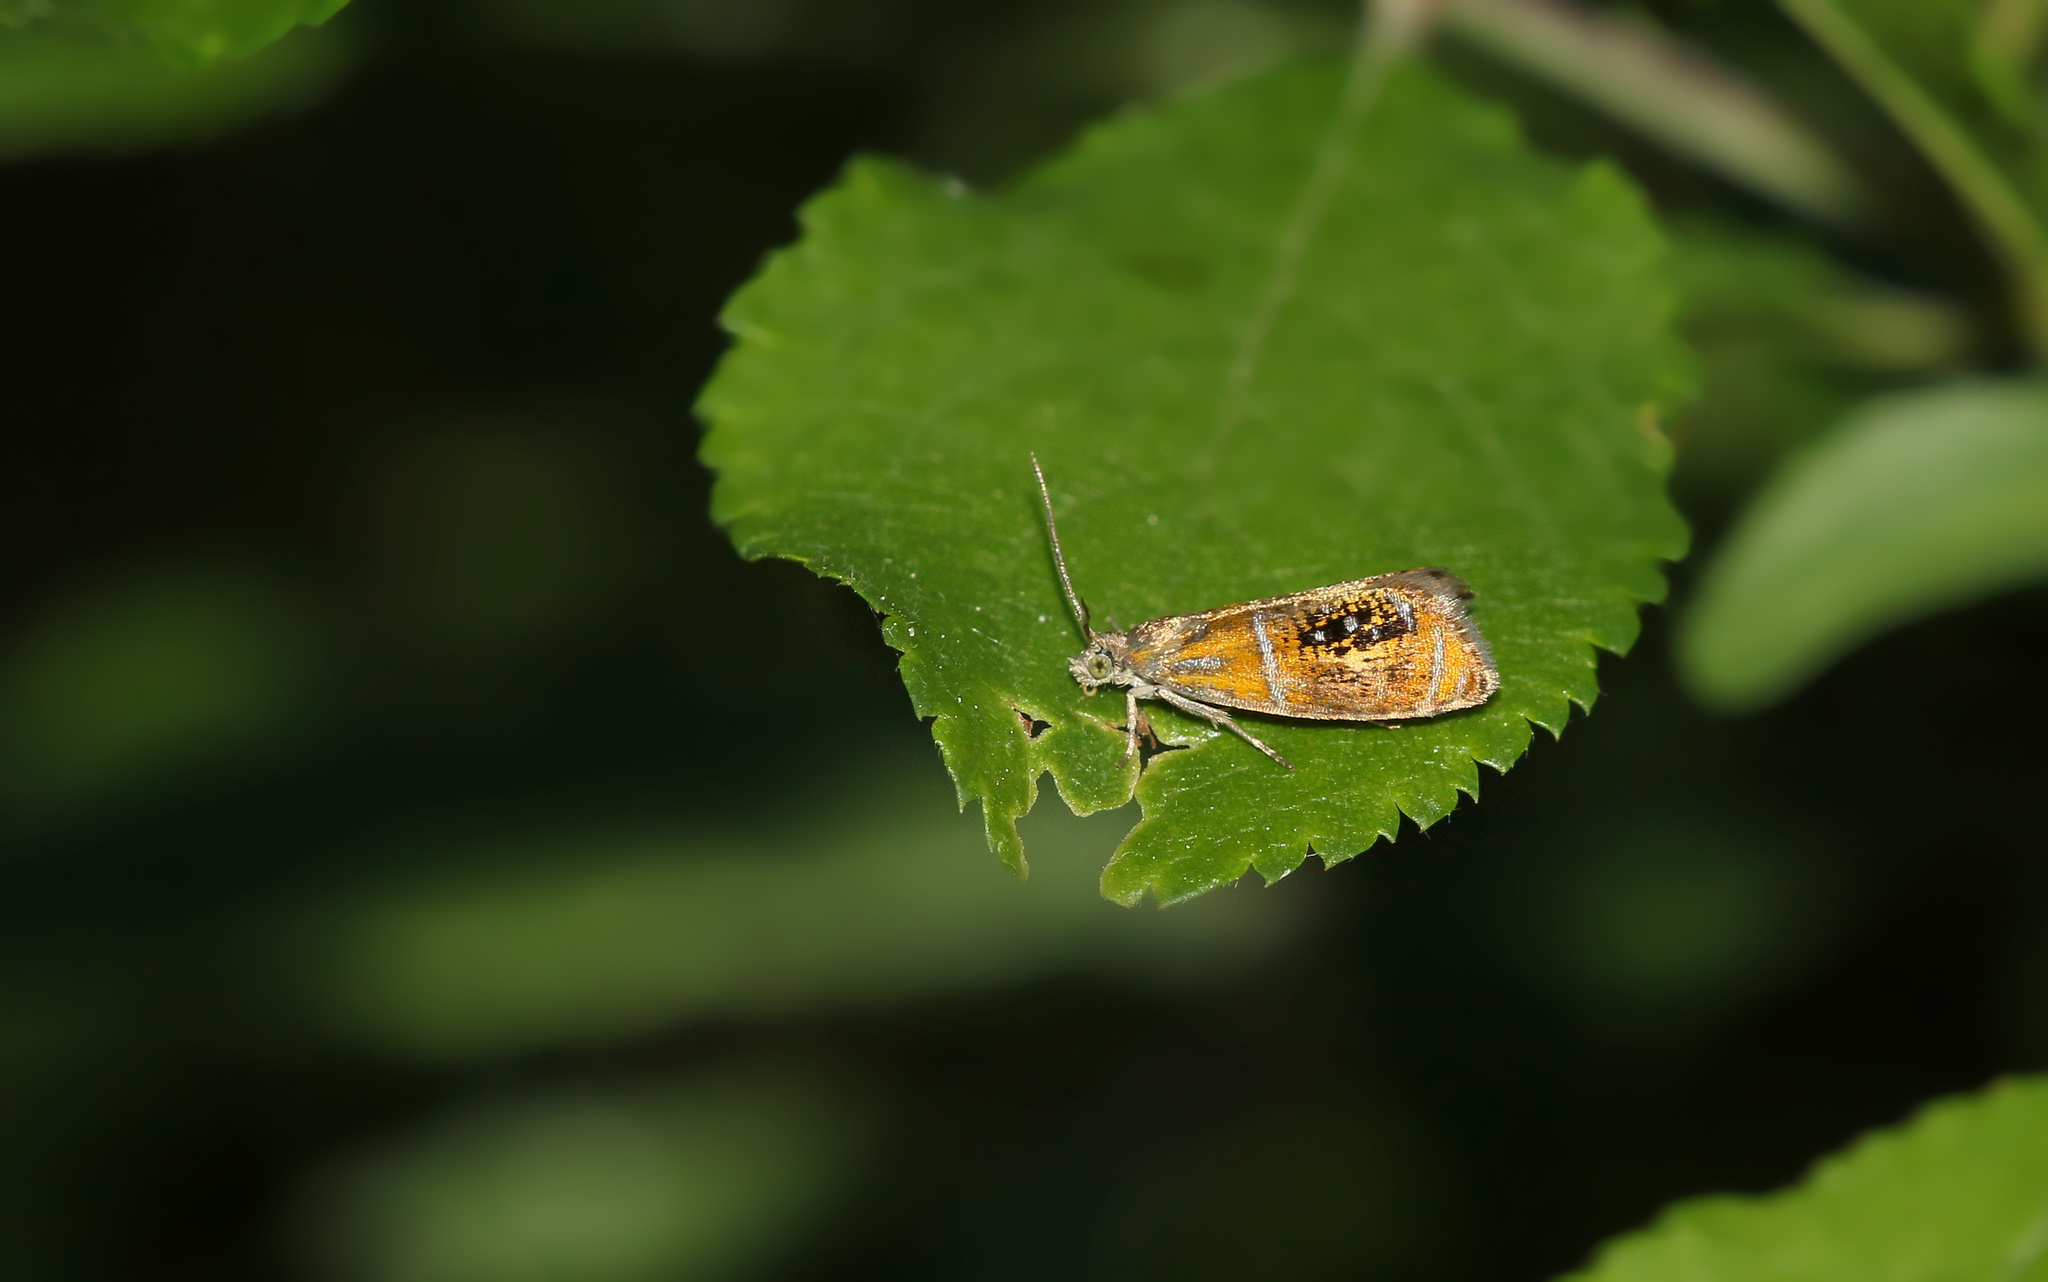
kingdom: Animalia
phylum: Arthropoda
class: Insecta
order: Lepidoptera
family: Tortricidae
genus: Olethreutes
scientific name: Olethreutes arcuella
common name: Arched marble
